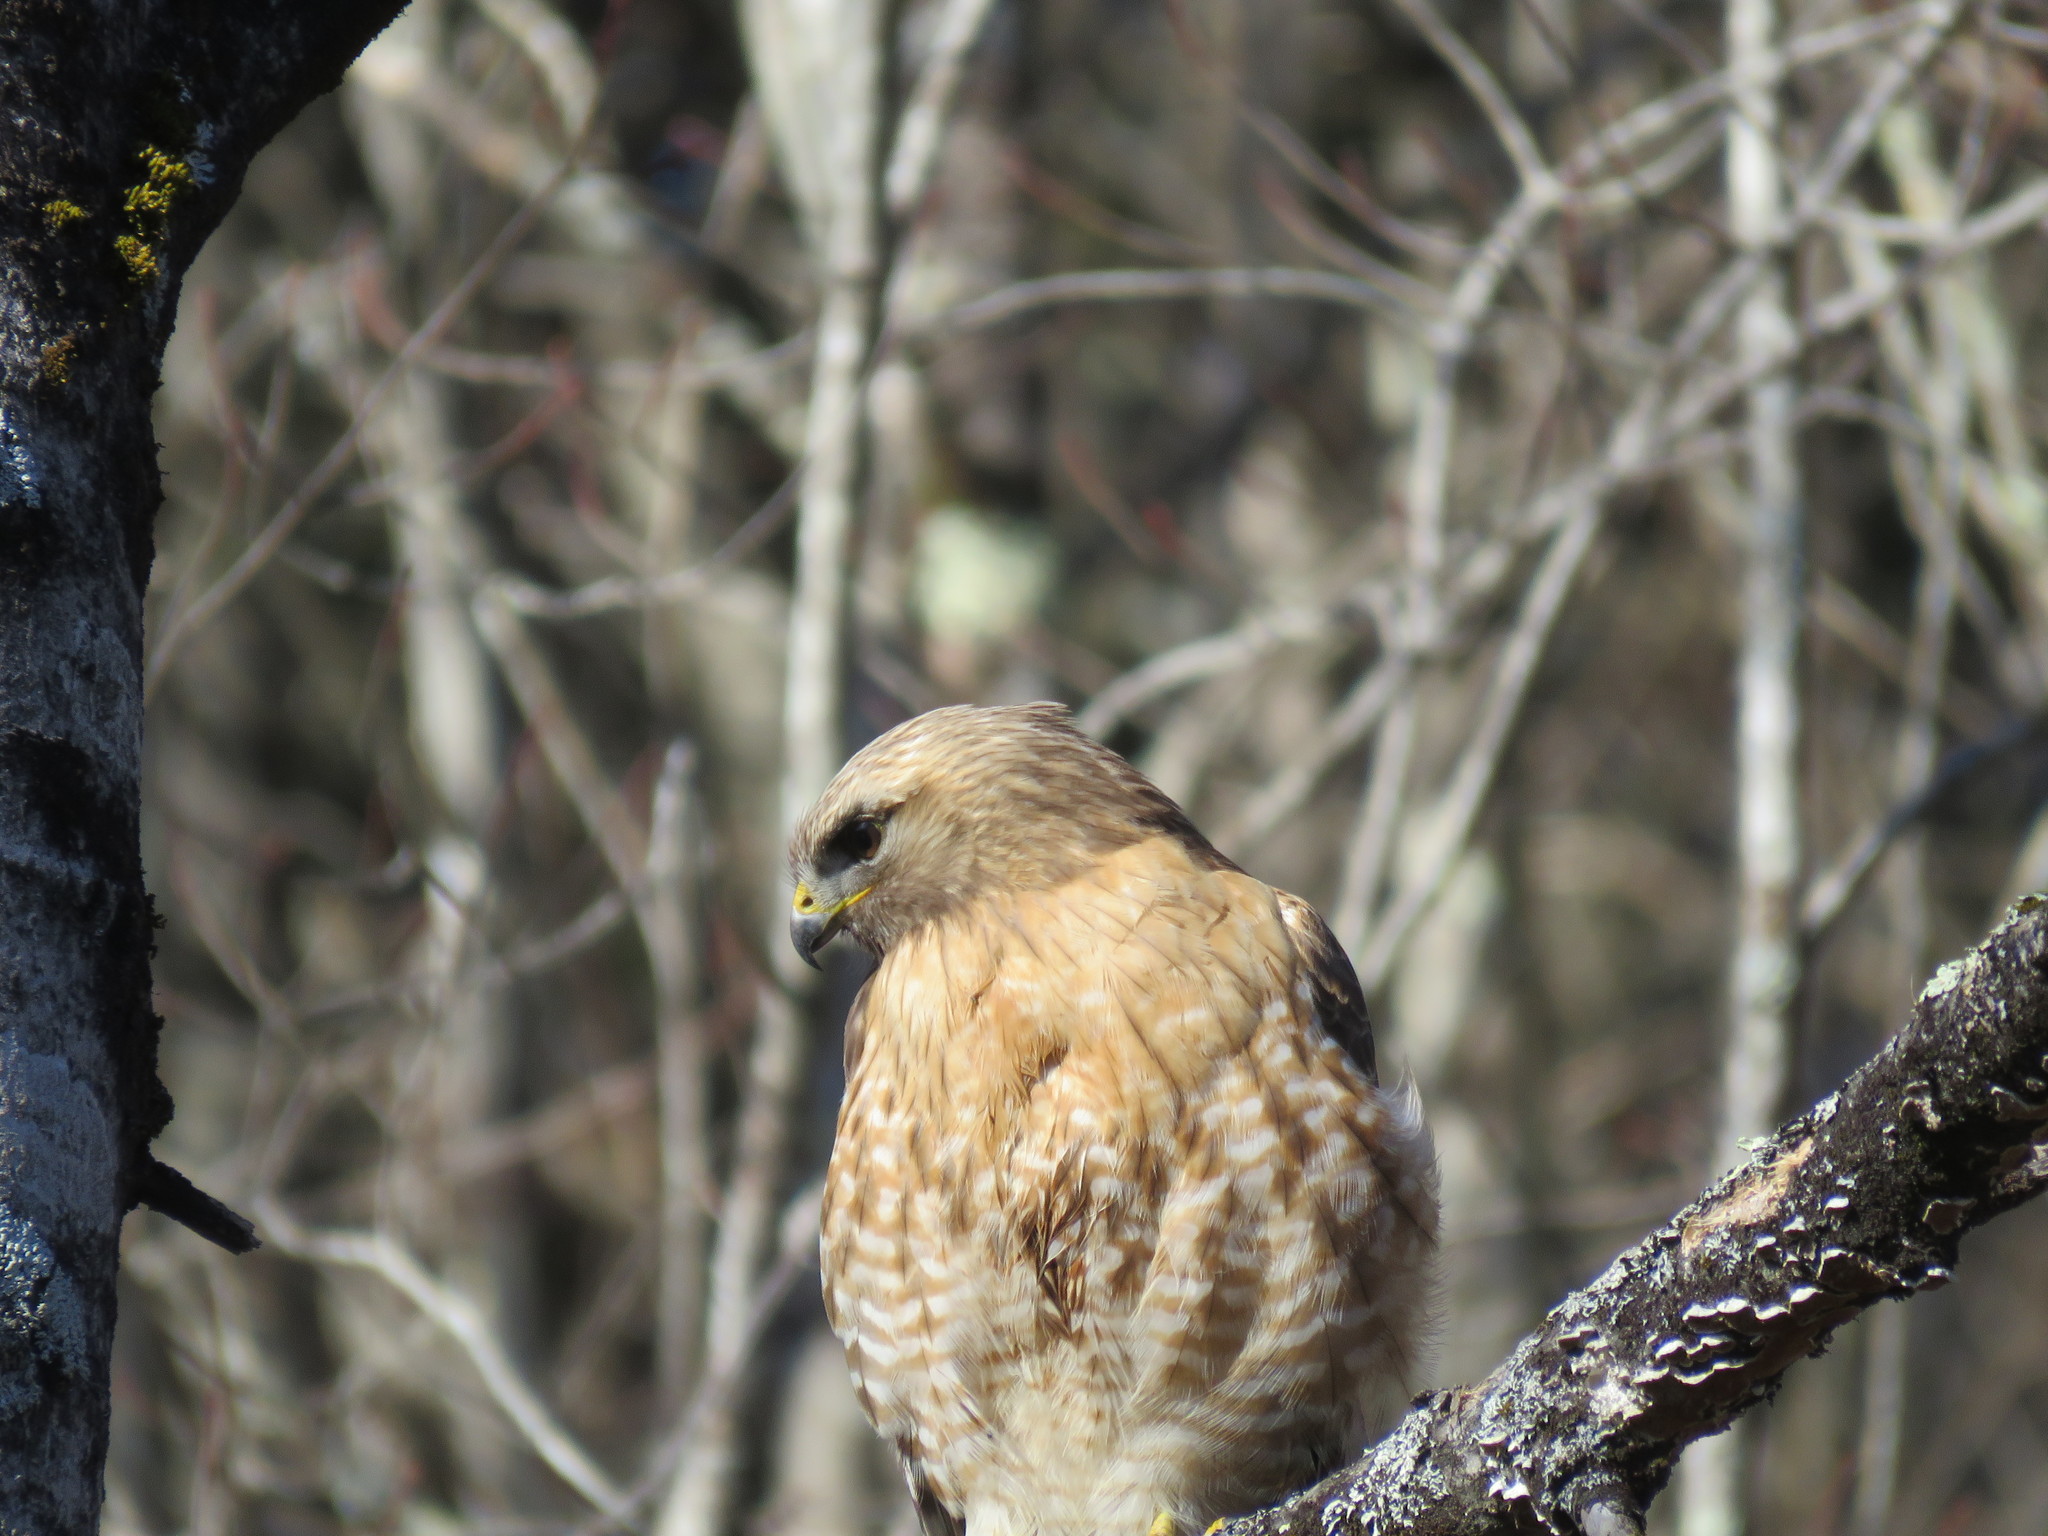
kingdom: Animalia
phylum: Chordata
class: Aves
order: Accipitriformes
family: Accipitridae
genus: Buteo
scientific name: Buteo lineatus
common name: Red-shouldered hawk
